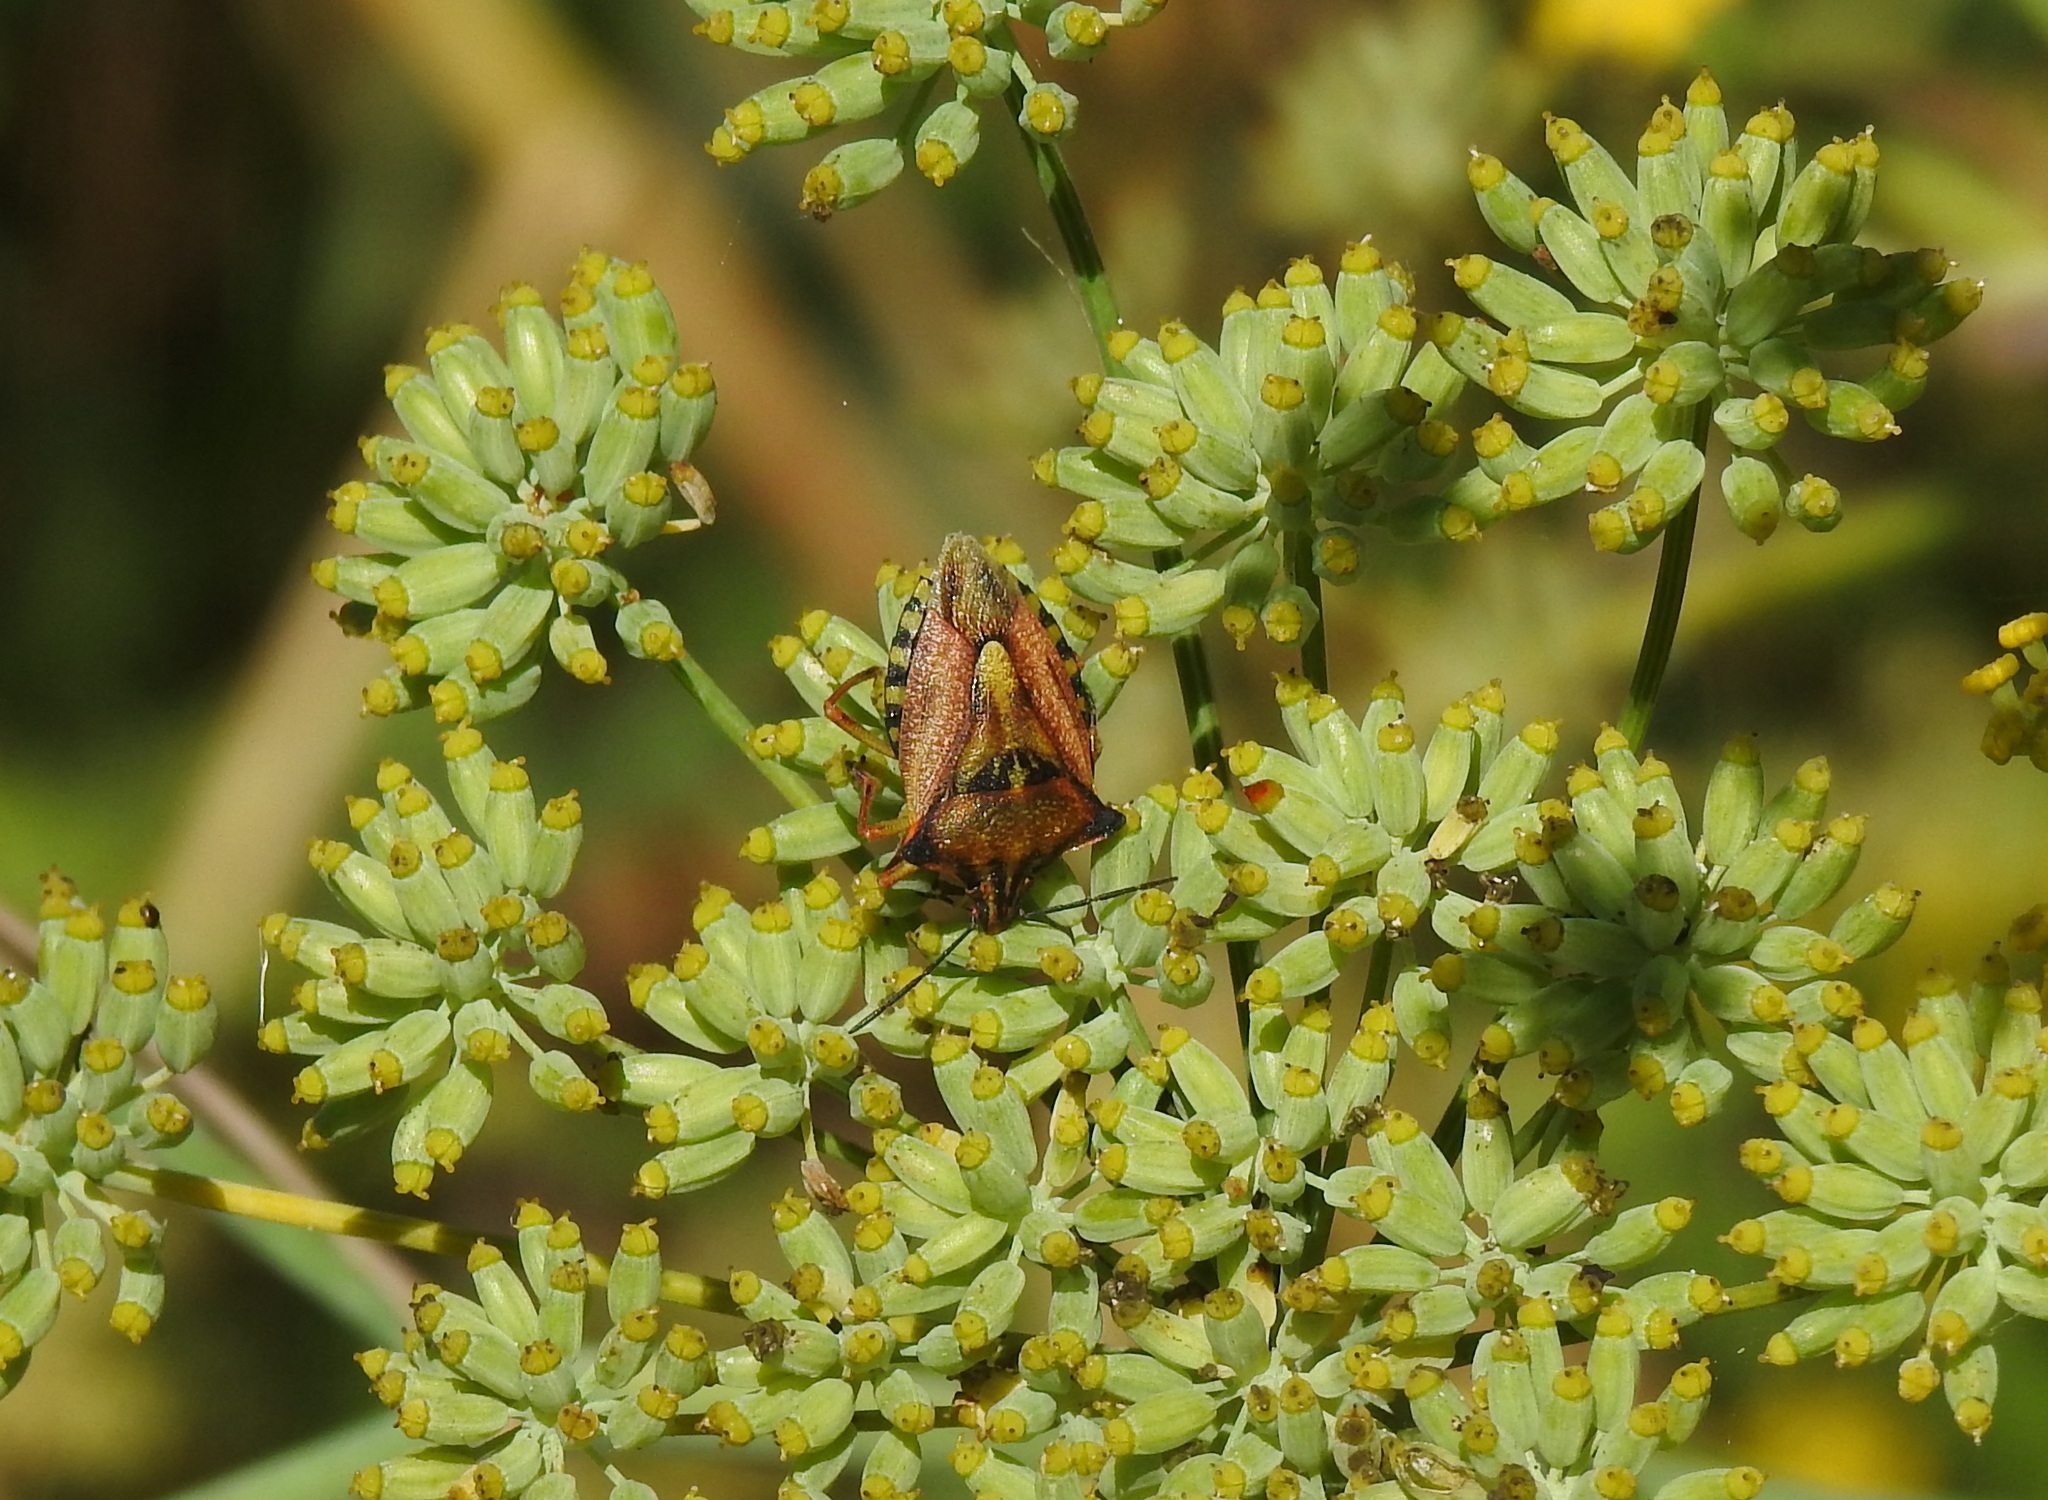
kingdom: Animalia
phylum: Arthropoda
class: Insecta
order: Hemiptera
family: Pentatomidae
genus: Carpocoris
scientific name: Carpocoris mediterraneus
